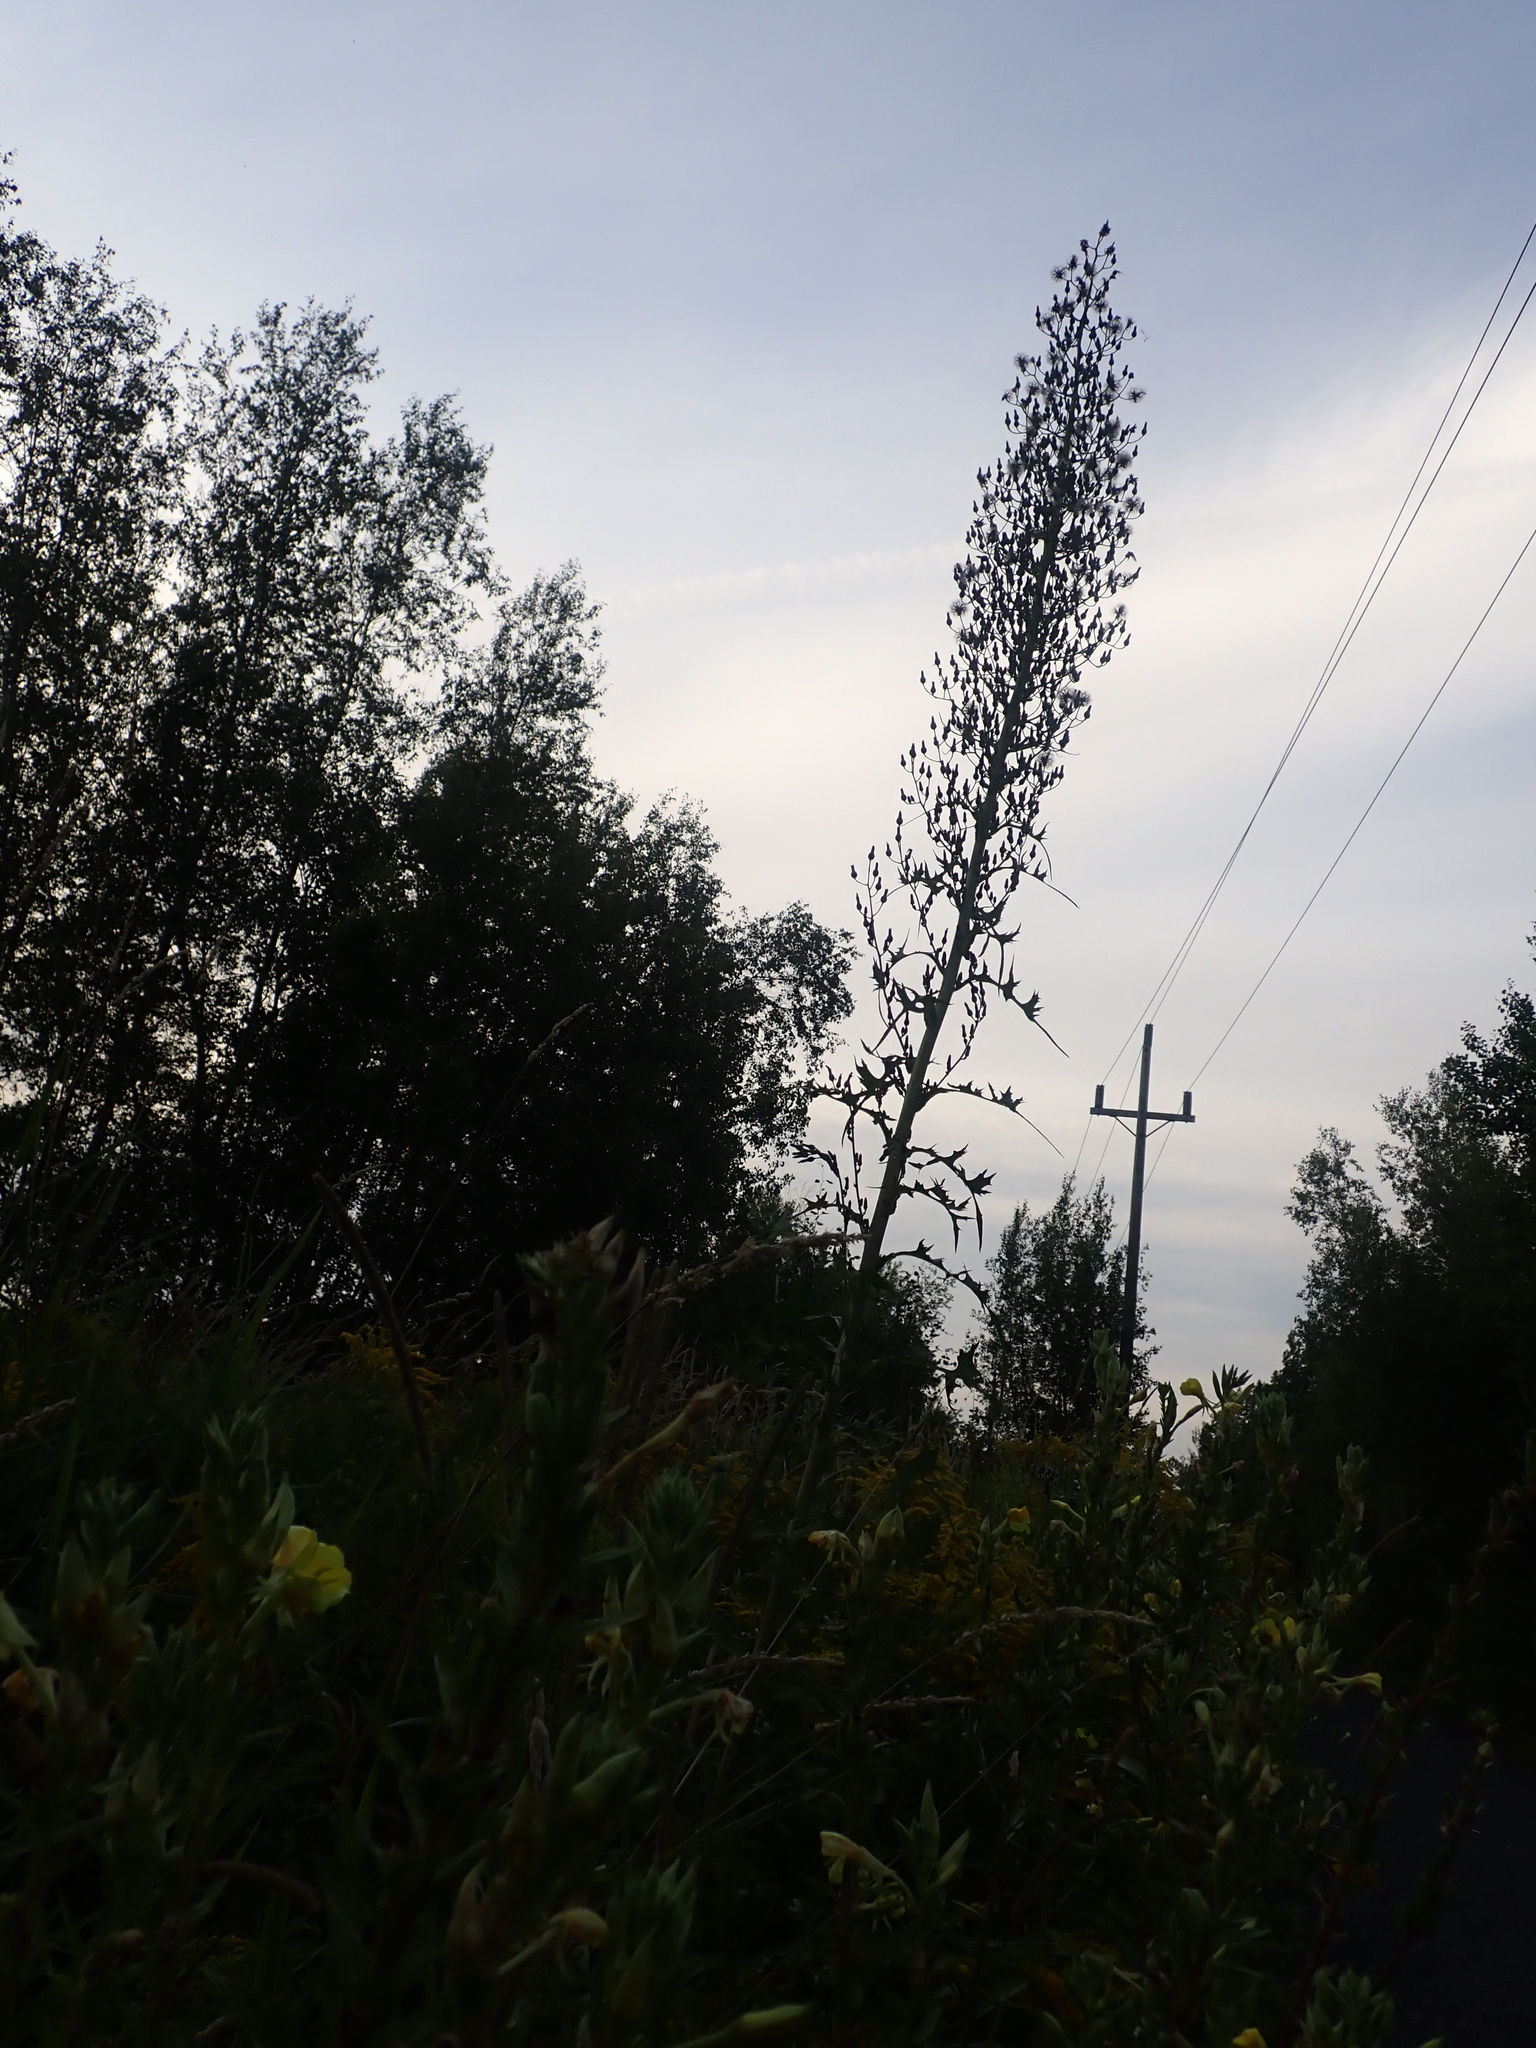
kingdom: Plantae
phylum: Tracheophyta
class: Magnoliopsida
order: Asterales
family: Asteraceae
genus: Lactuca
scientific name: Lactuca biennis
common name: Blue wood lettuce
